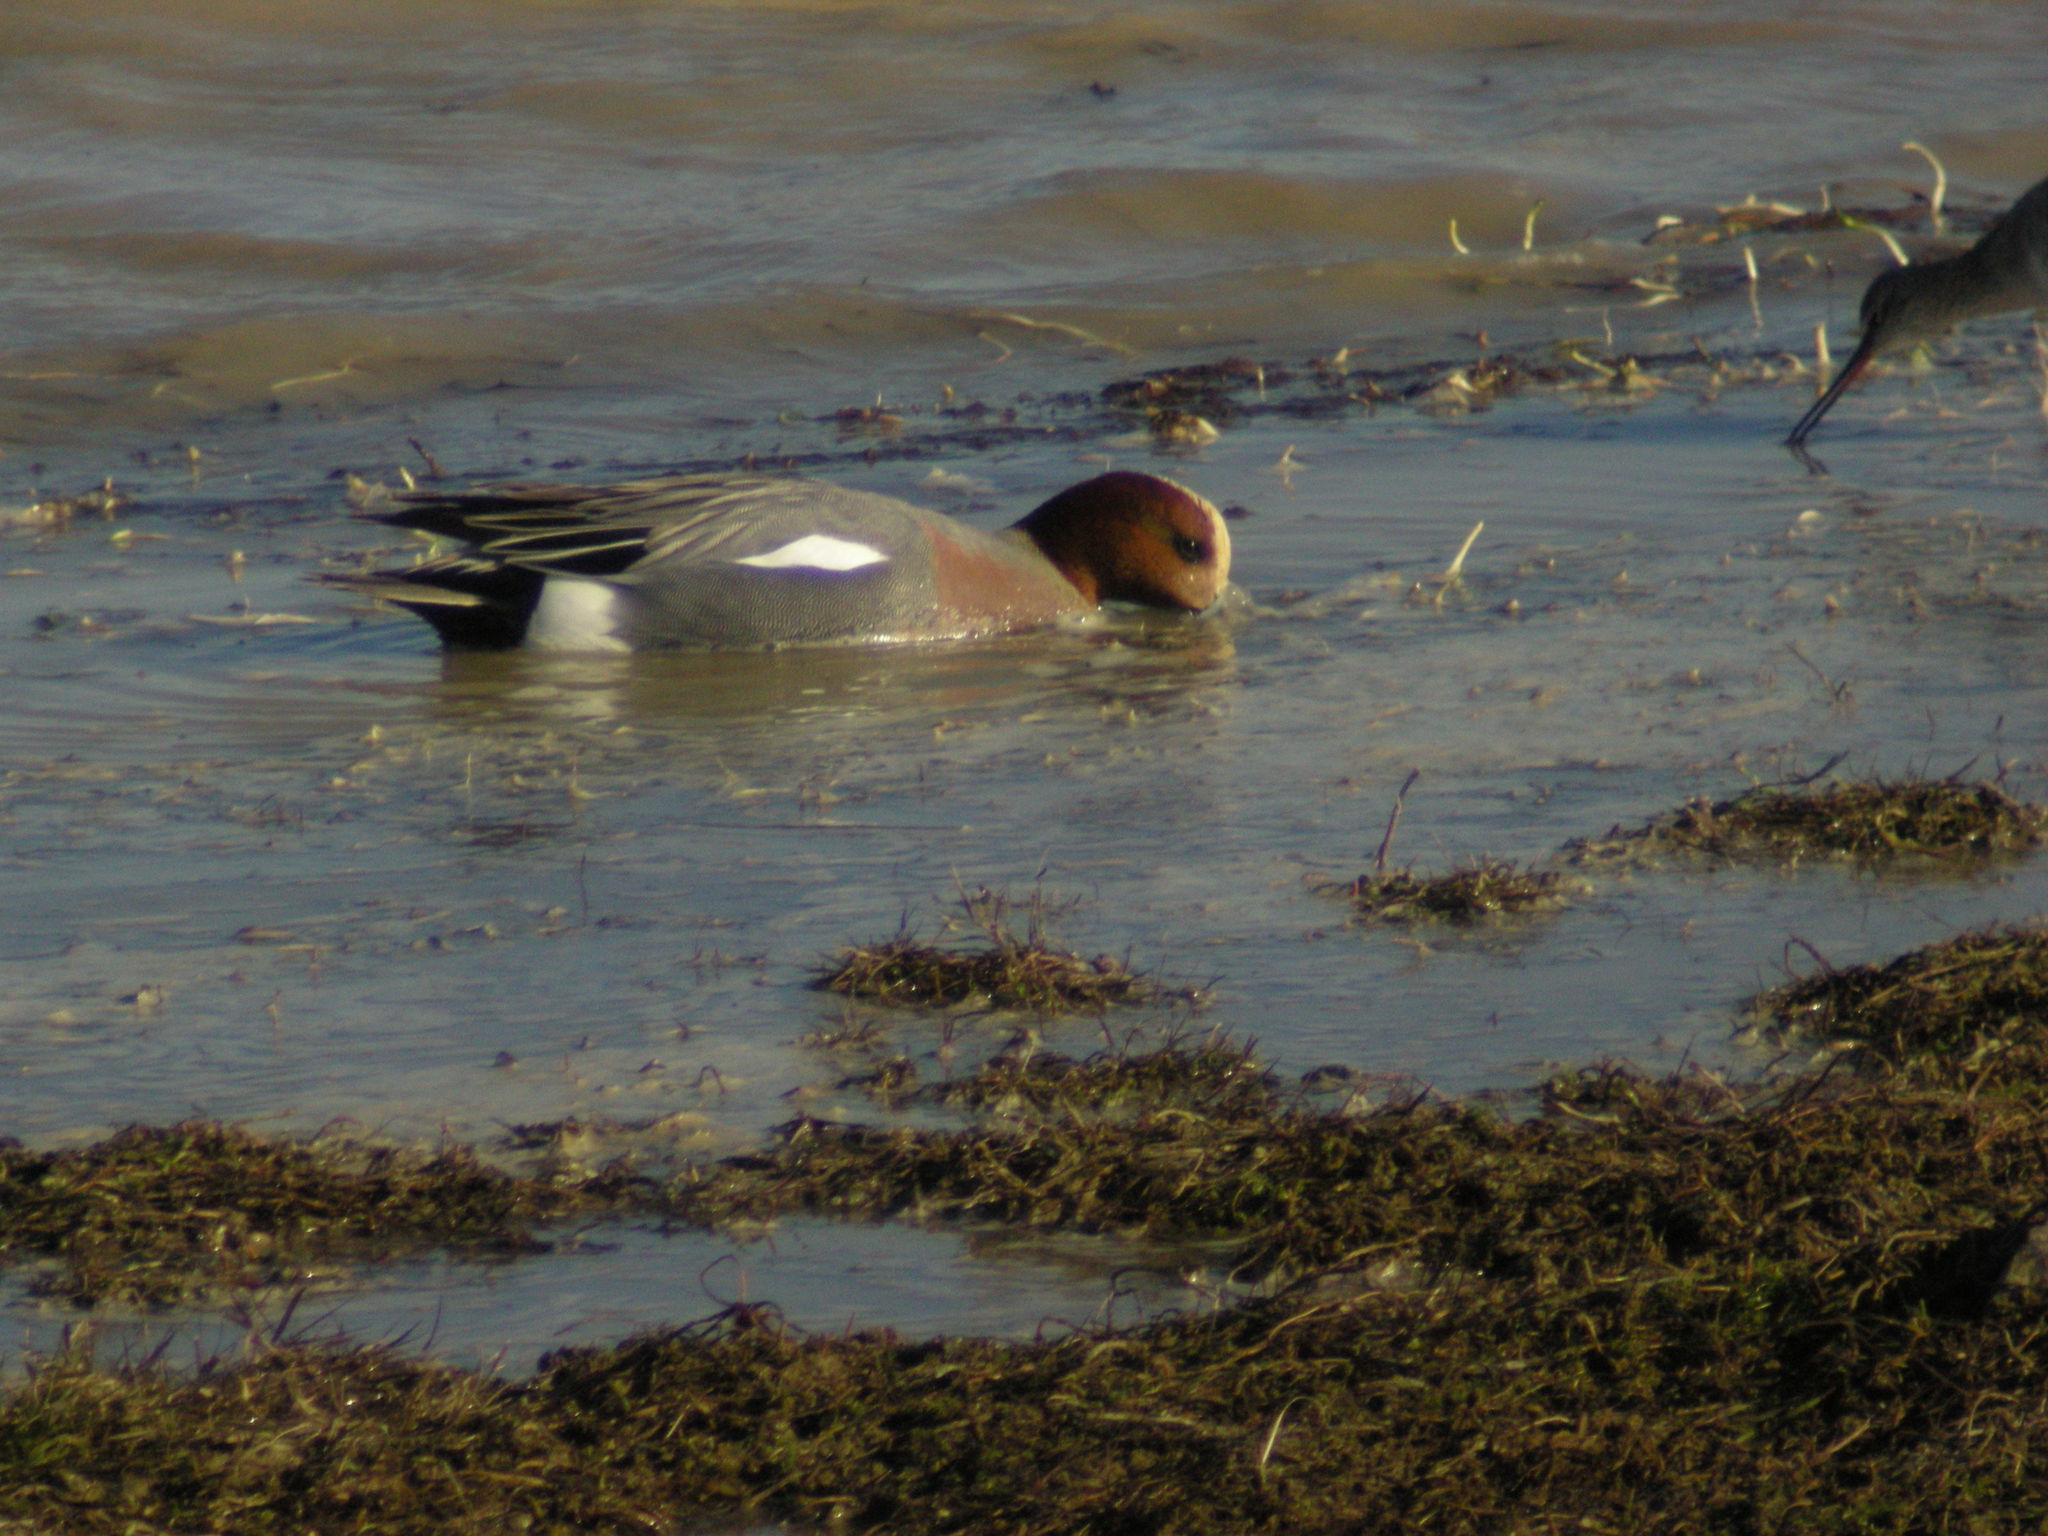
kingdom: Animalia
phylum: Chordata
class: Aves
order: Anseriformes
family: Anatidae
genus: Mareca
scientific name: Mareca penelope
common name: Eurasian wigeon
